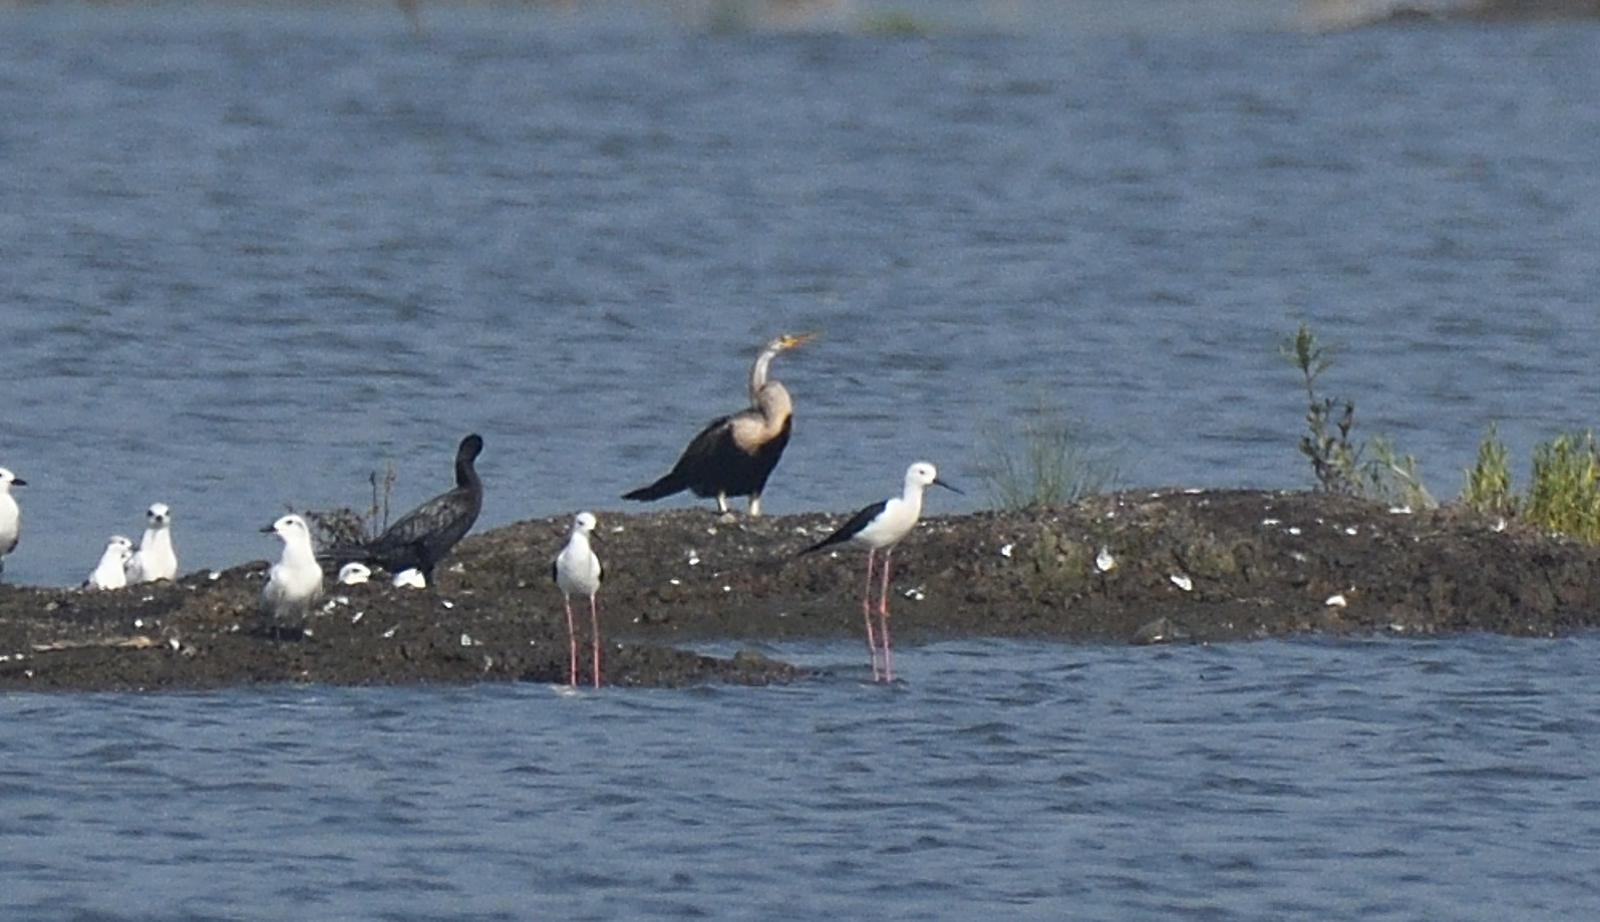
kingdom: Animalia
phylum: Chordata
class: Aves
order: Suliformes
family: Anhingidae
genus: Anhinga
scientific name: Anhinga melanogaster
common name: Oriental darter
